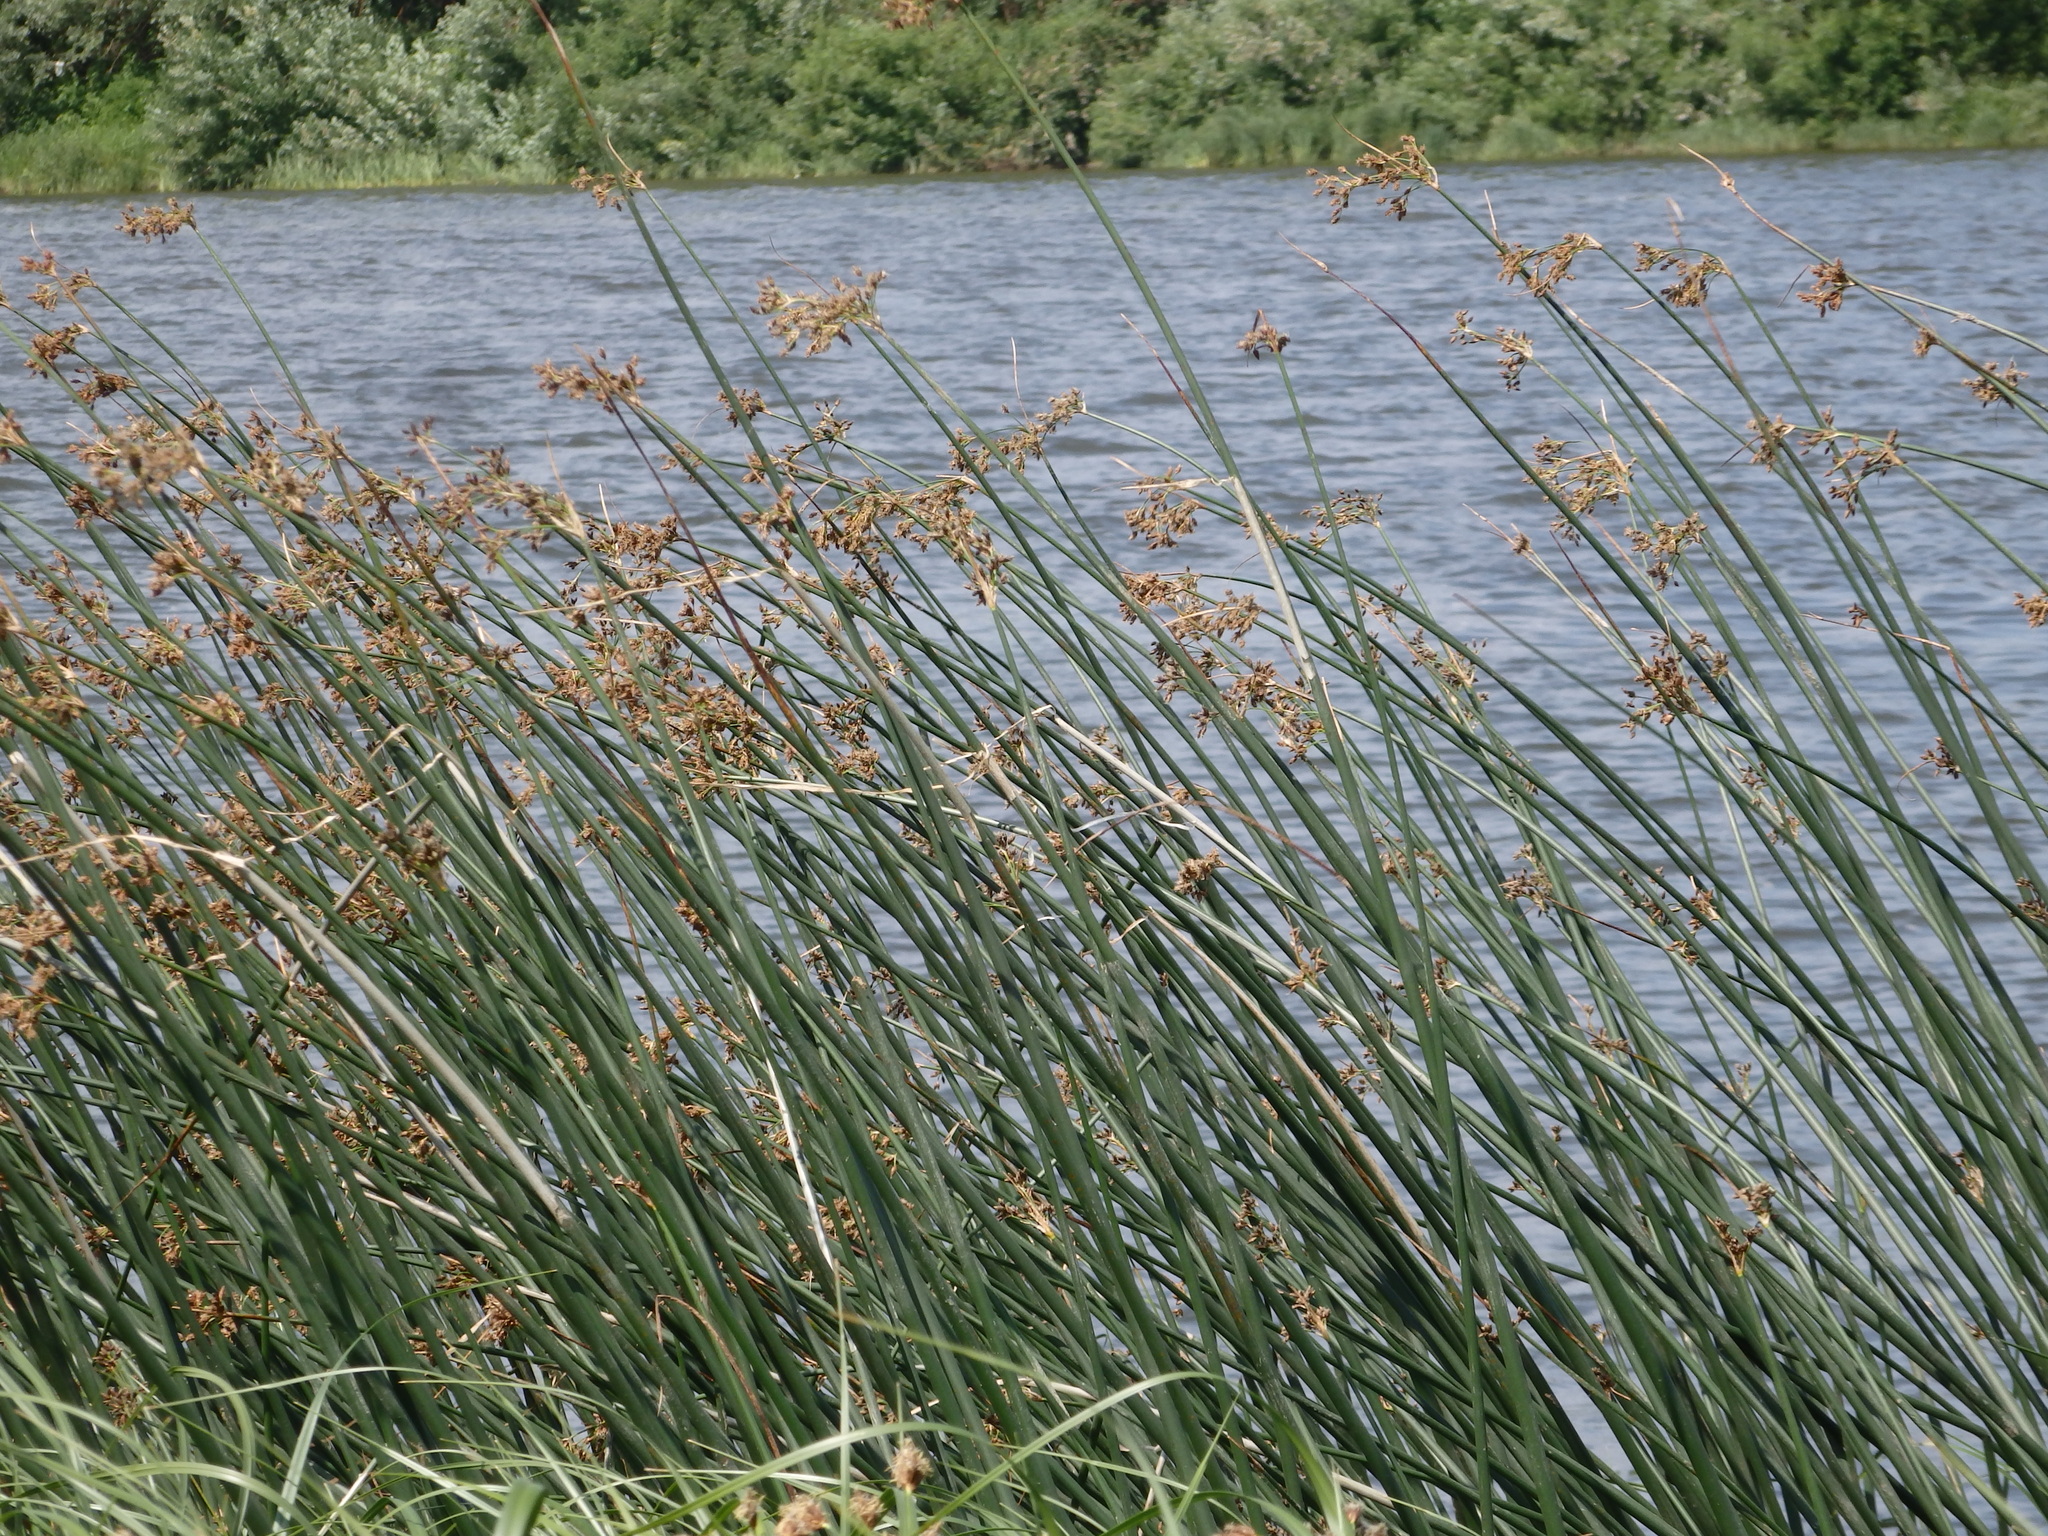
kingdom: Plantae
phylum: Tracheophyta
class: Liliopsida
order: Poales
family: Cyperaceae
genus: Schoenoplectus
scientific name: Schoenoplectus lacustris
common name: Common club-rush
